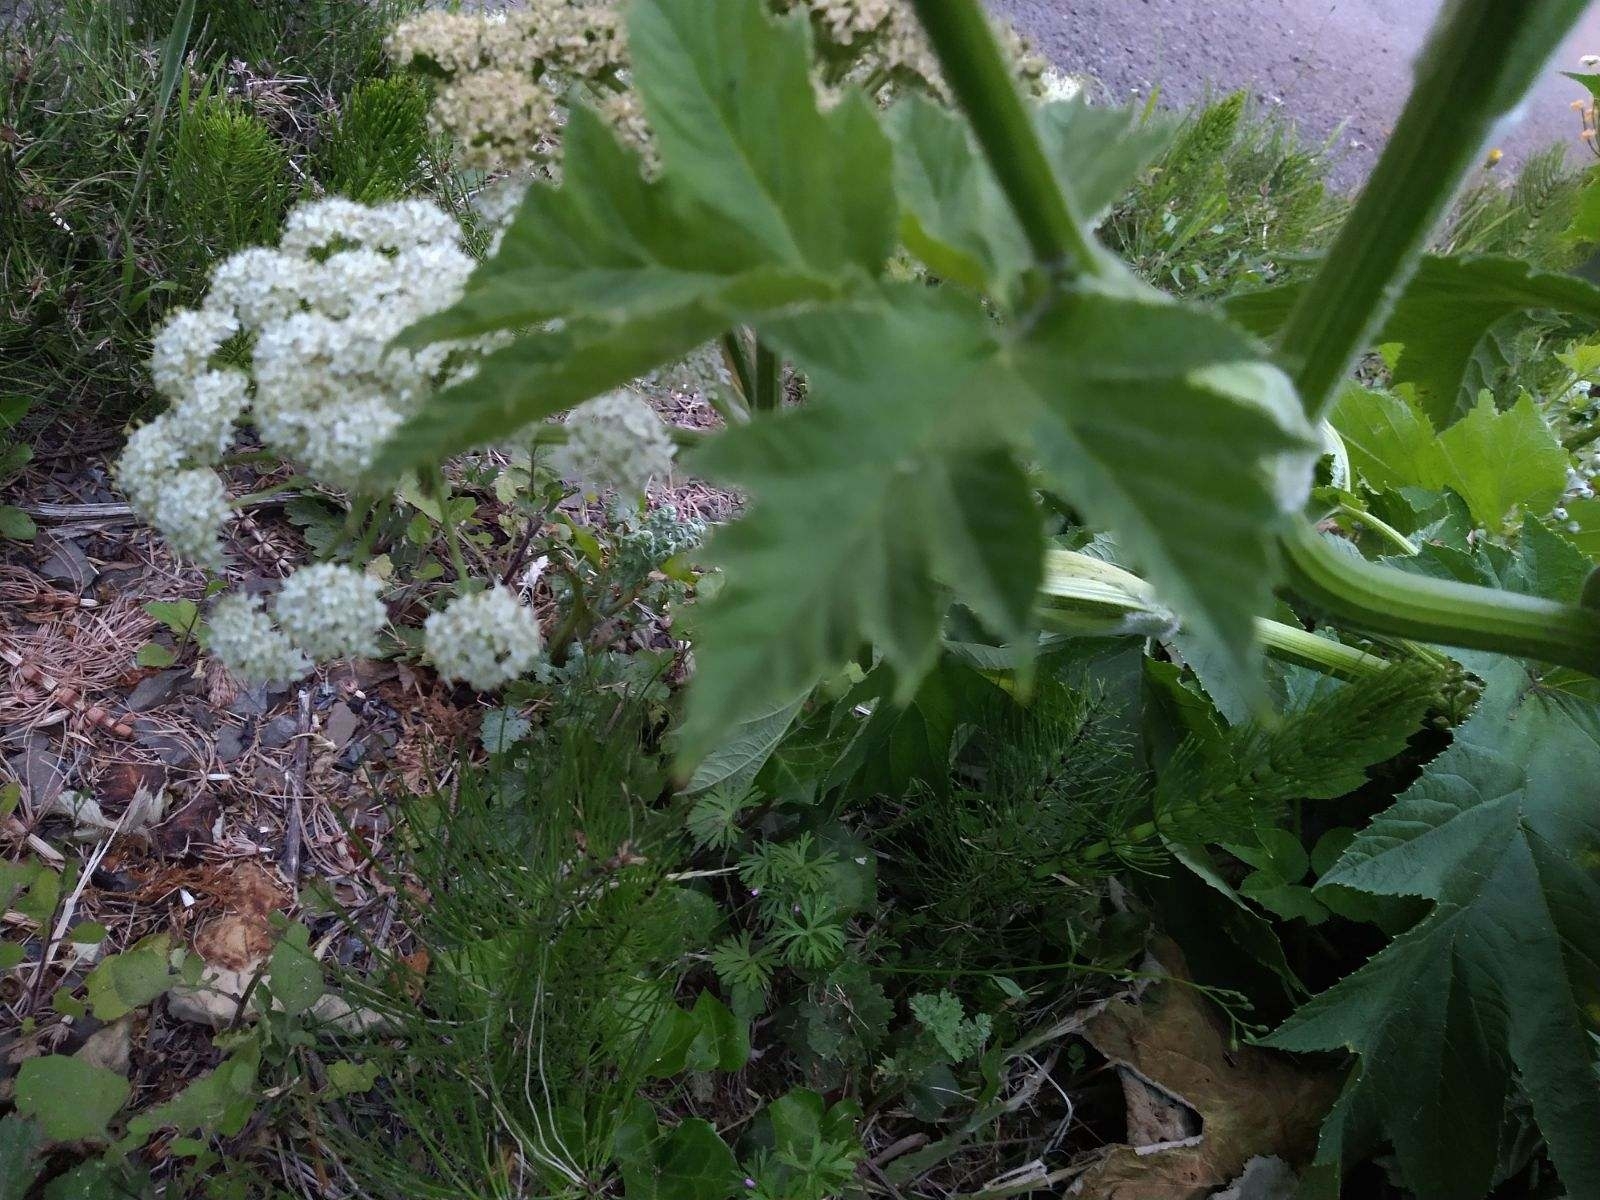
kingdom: Plantae
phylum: Tracheophyta
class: Magnoliopsida
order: Apiales
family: Apiaceae
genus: Heracleum
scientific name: Heracleum maximum
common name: American cow parsnip
